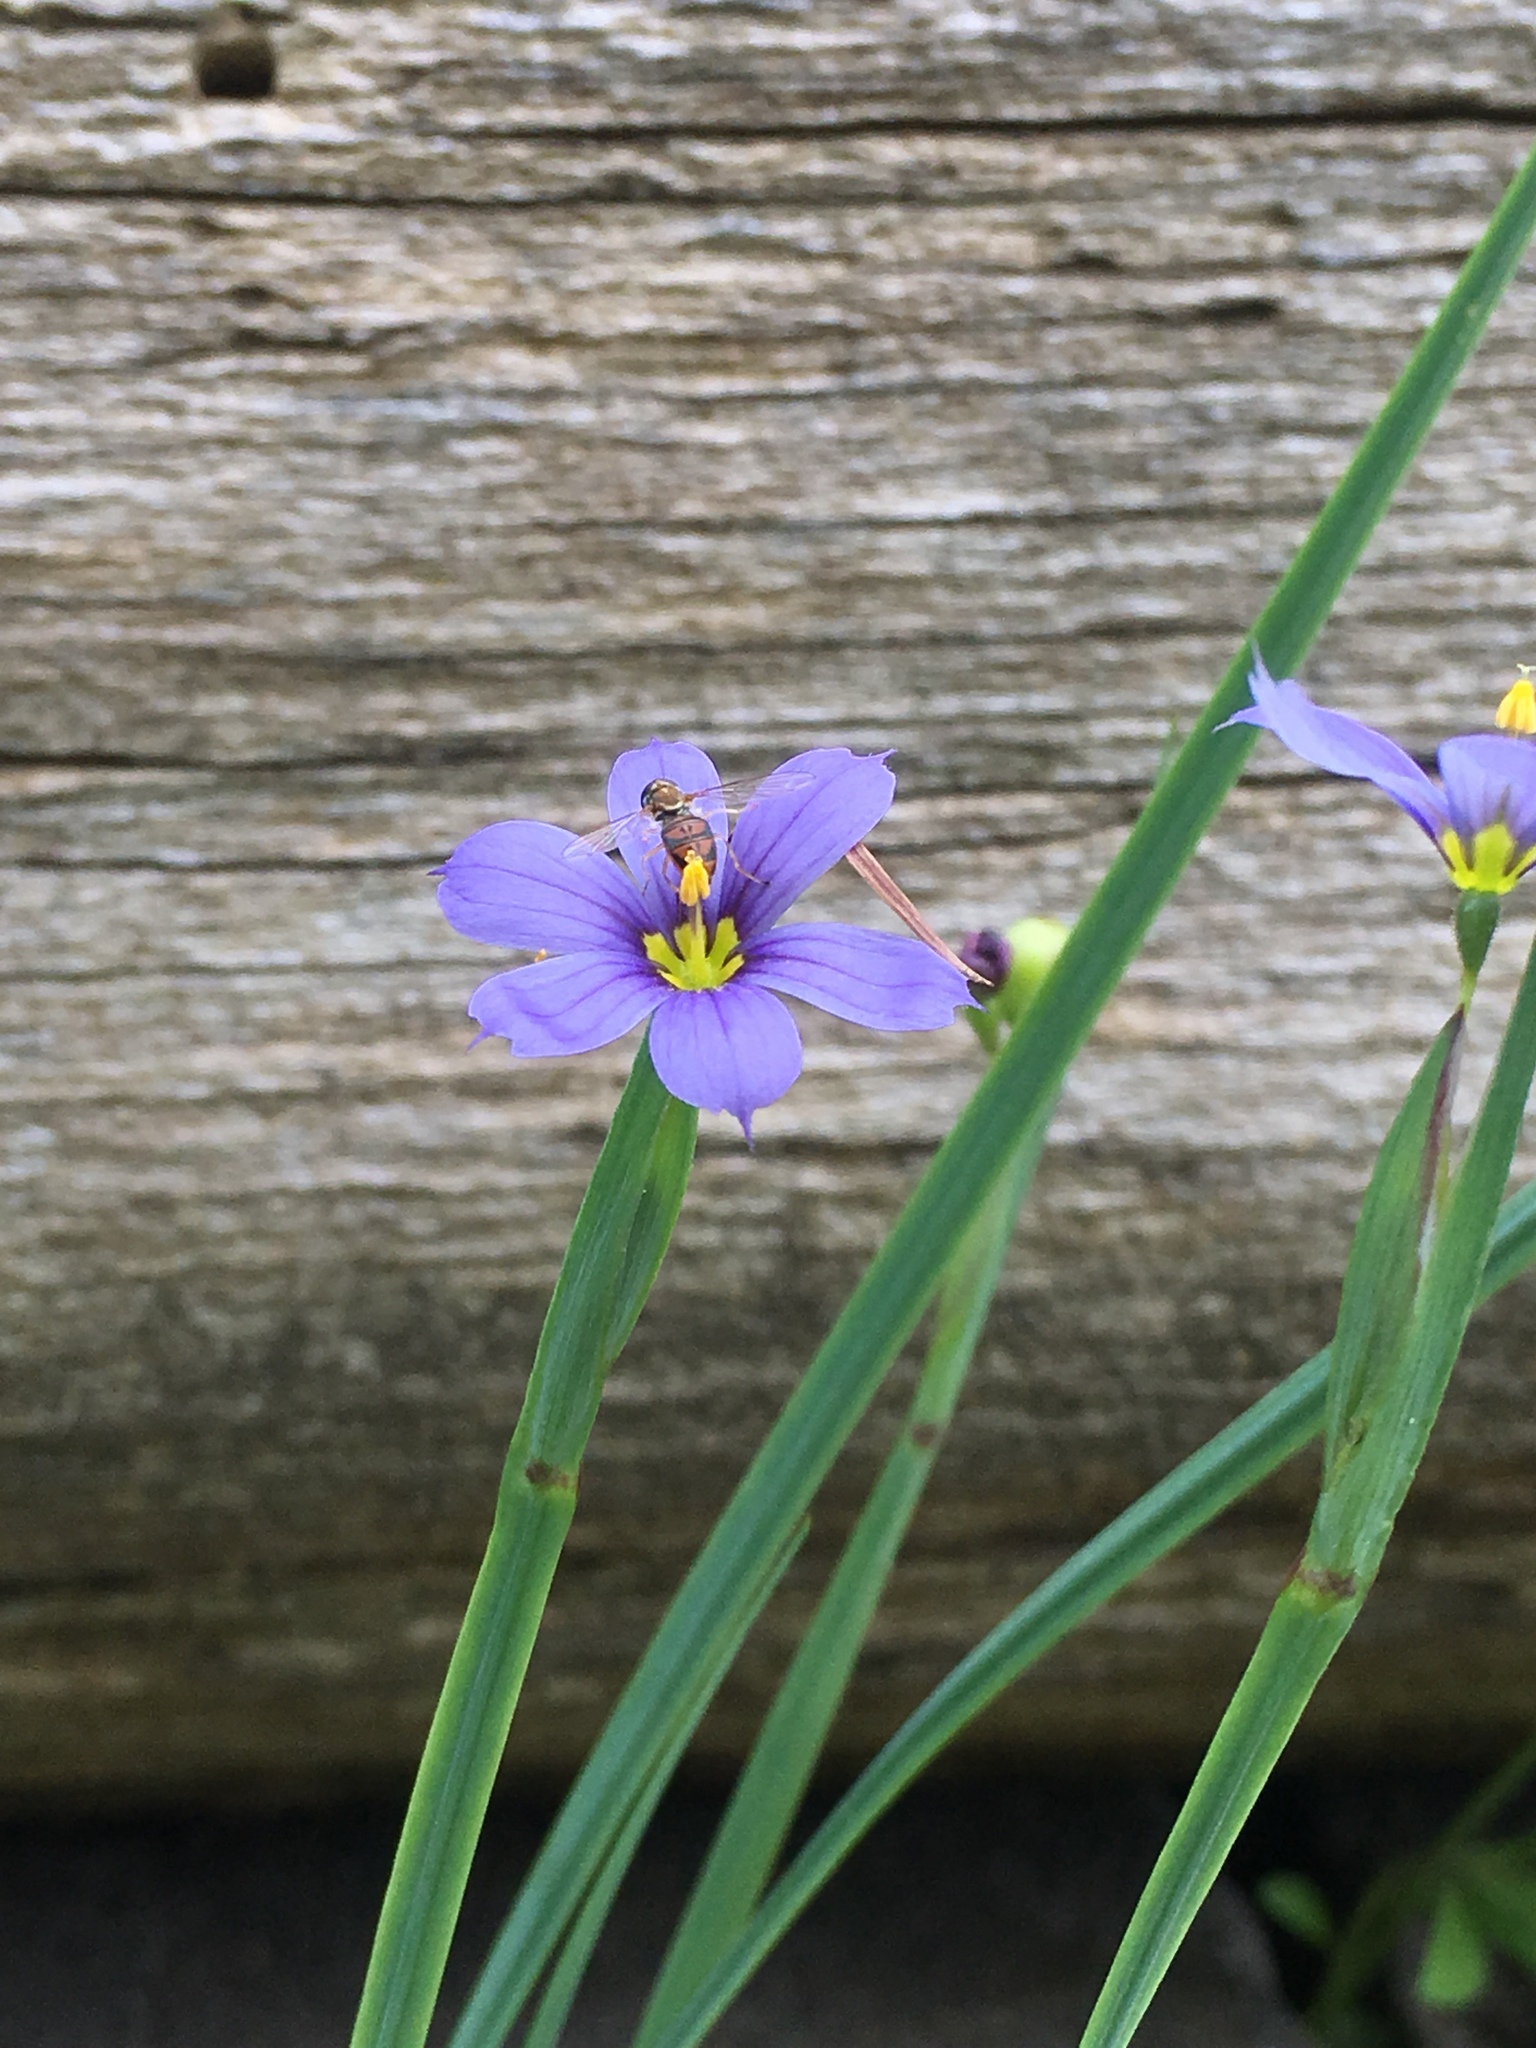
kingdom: Animalia
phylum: Arthropoda
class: Insecta
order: Diptera
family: Syrphidae
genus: Toxomerus
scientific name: Toxomerus marginatus
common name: Syrphid fly
